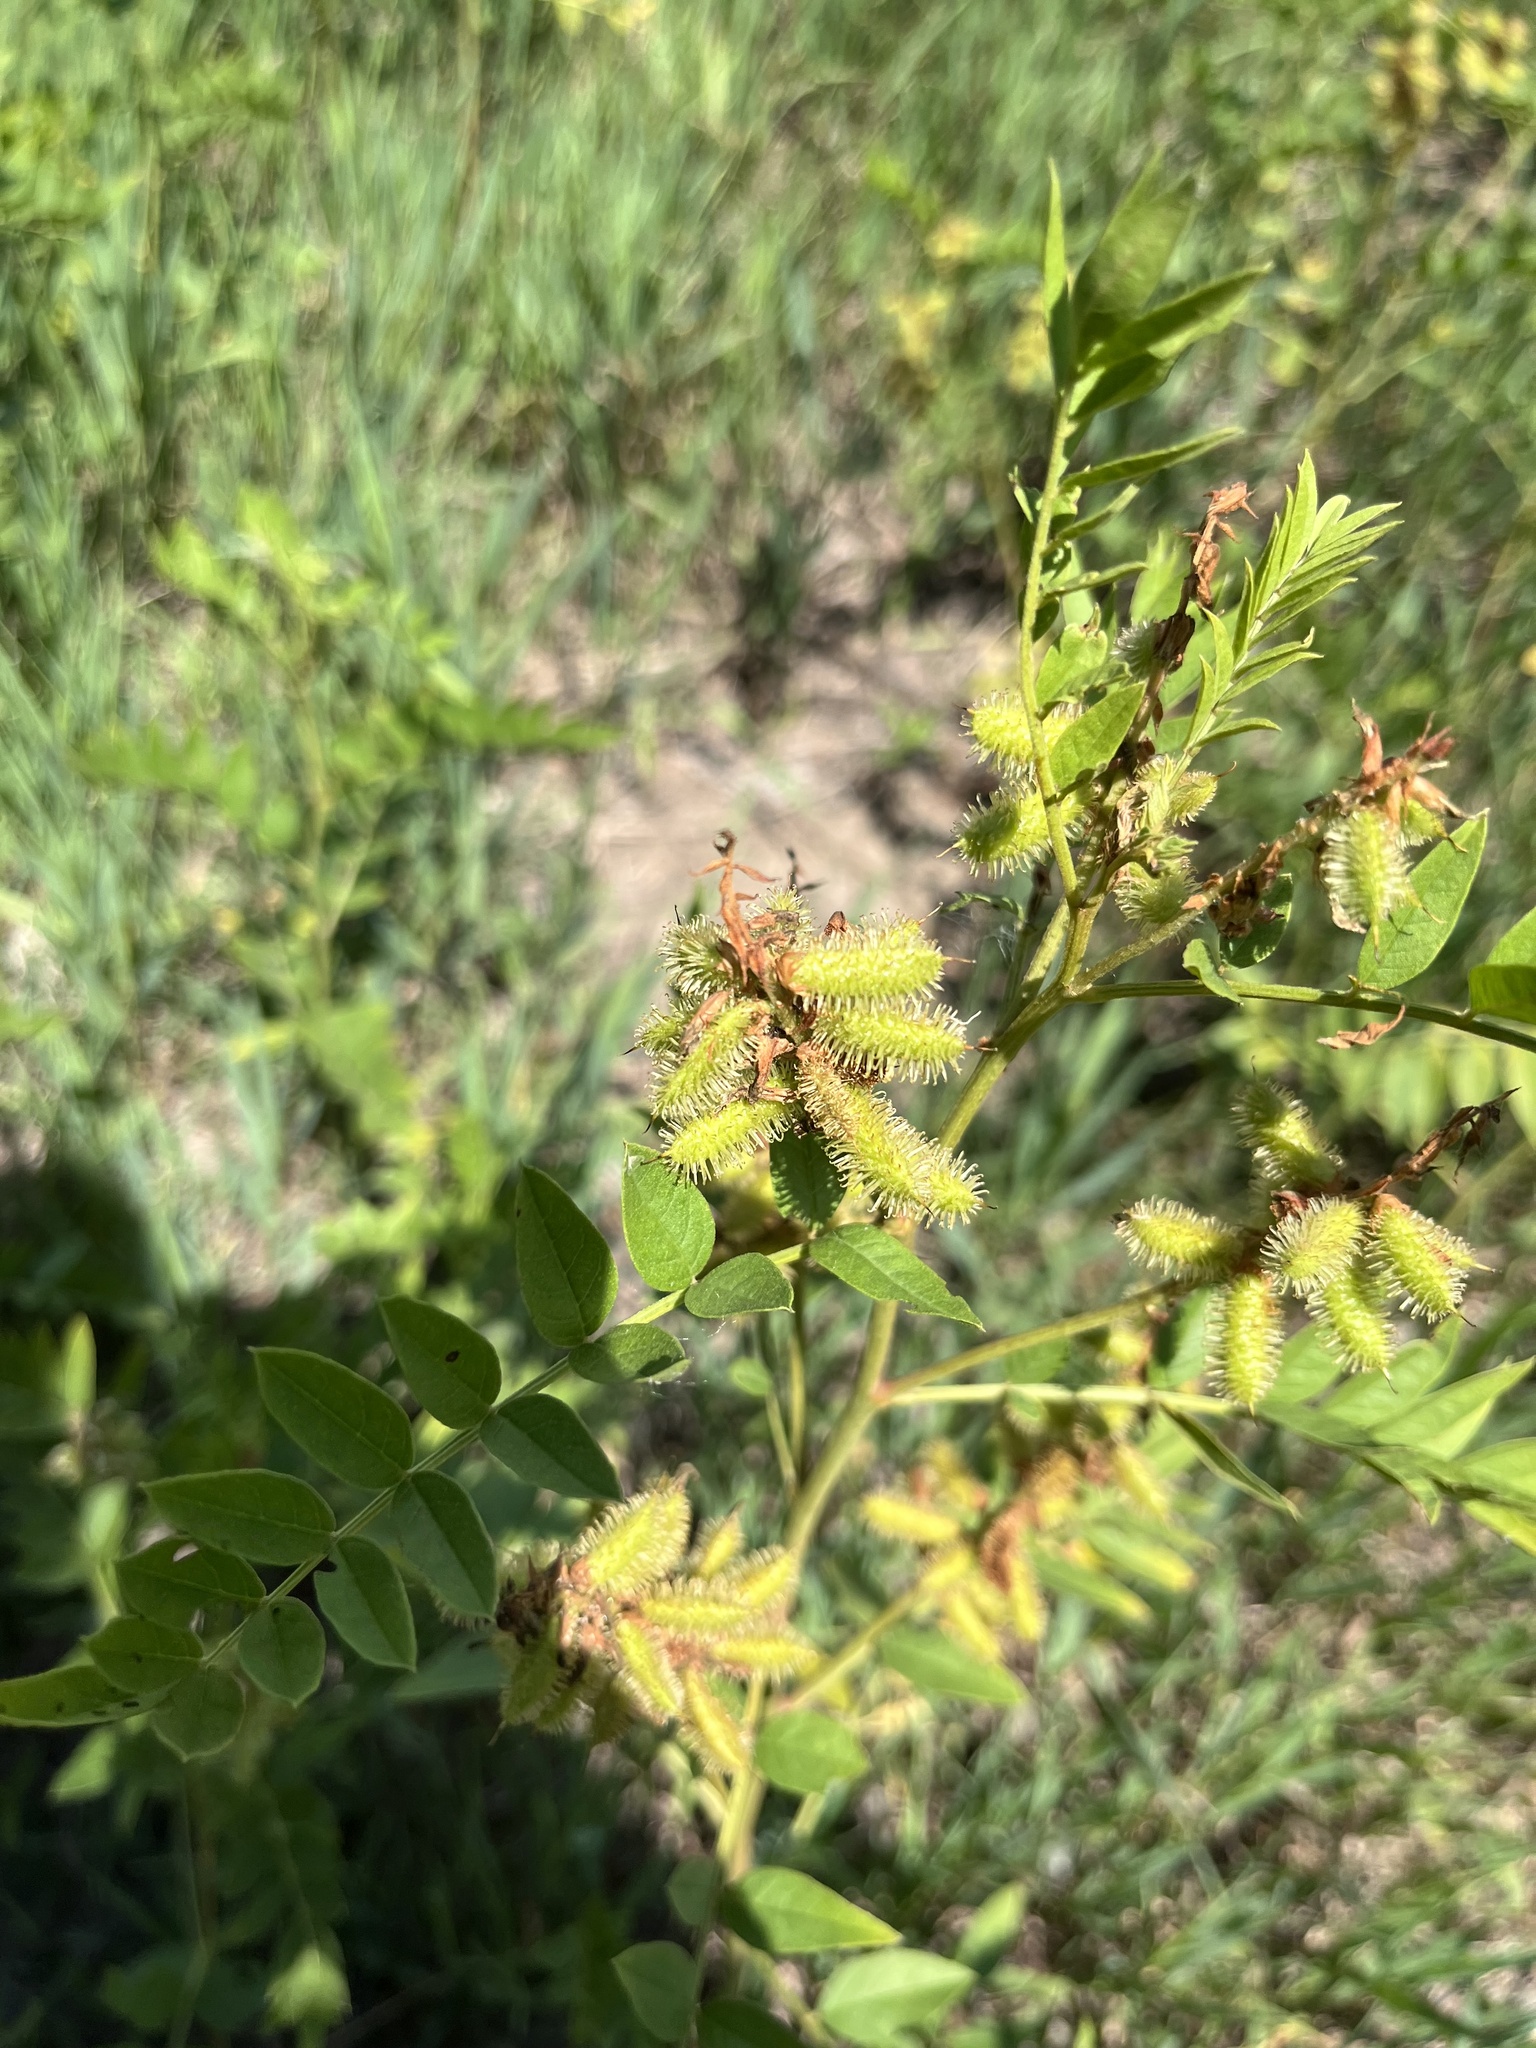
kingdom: Plantae
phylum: Tracheophyta
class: Magnoliopsida
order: Fabales
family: Fabaceae
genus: Glycyrrhiza
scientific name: Glycyrrhiza lepidota
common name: American liquorice
